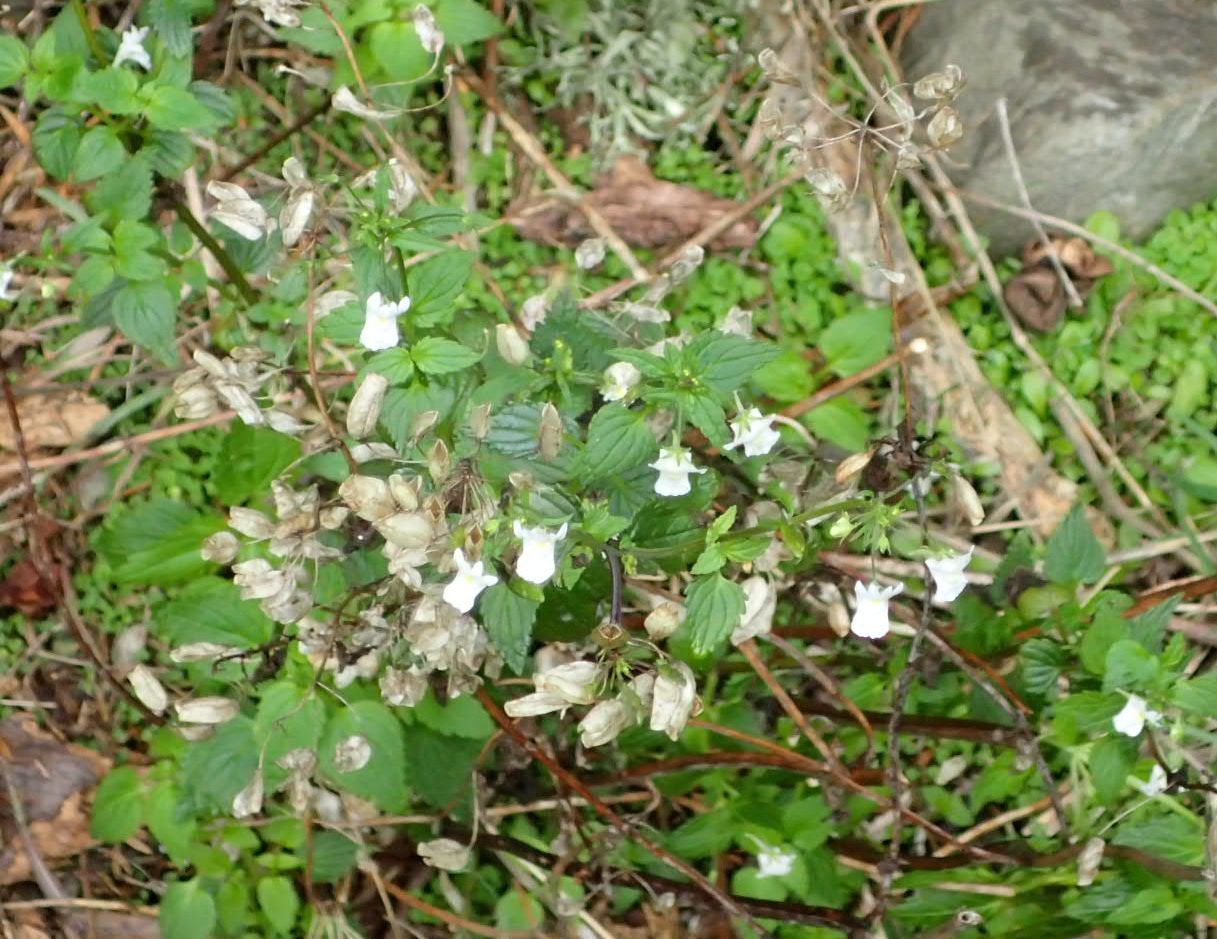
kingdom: Plantae
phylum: Tracheophyta
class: Magnoliopsida
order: Lamiales
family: Scrophulariaceae
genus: Nemesia
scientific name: Nemesia floribunda
